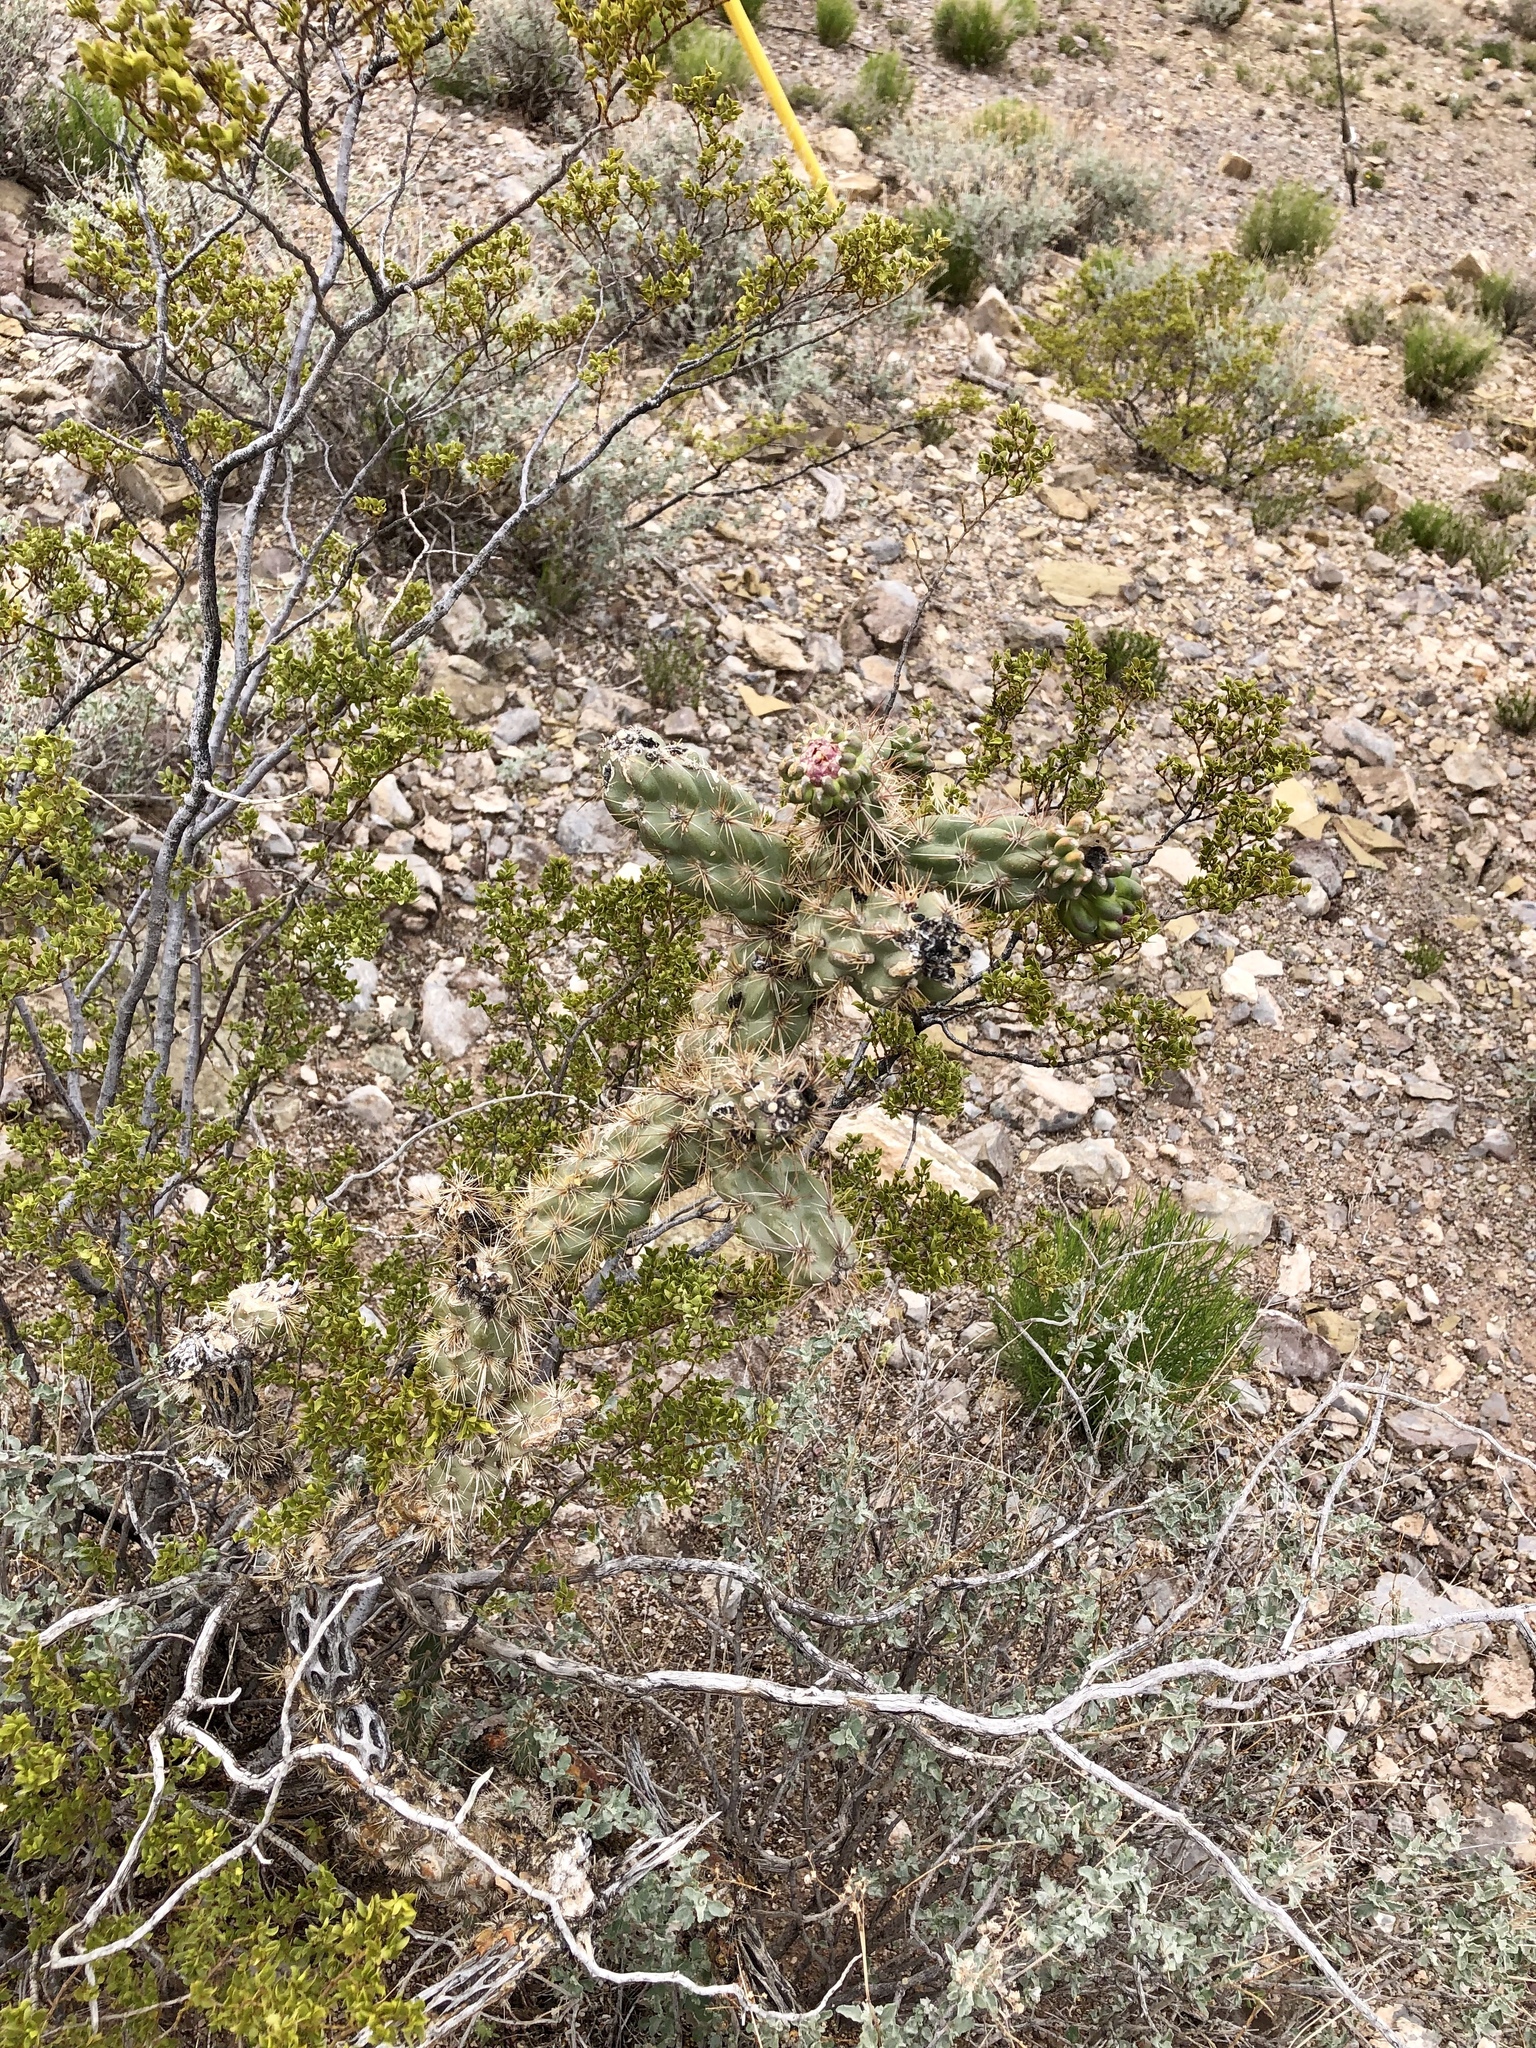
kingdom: Plantae
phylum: Tracheophyta
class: Magnoliopsida
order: Caryophyllales
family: Cactaceae
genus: Cylindropuntia
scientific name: Cylindropuntia imbricata
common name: Candelabrum cactus
